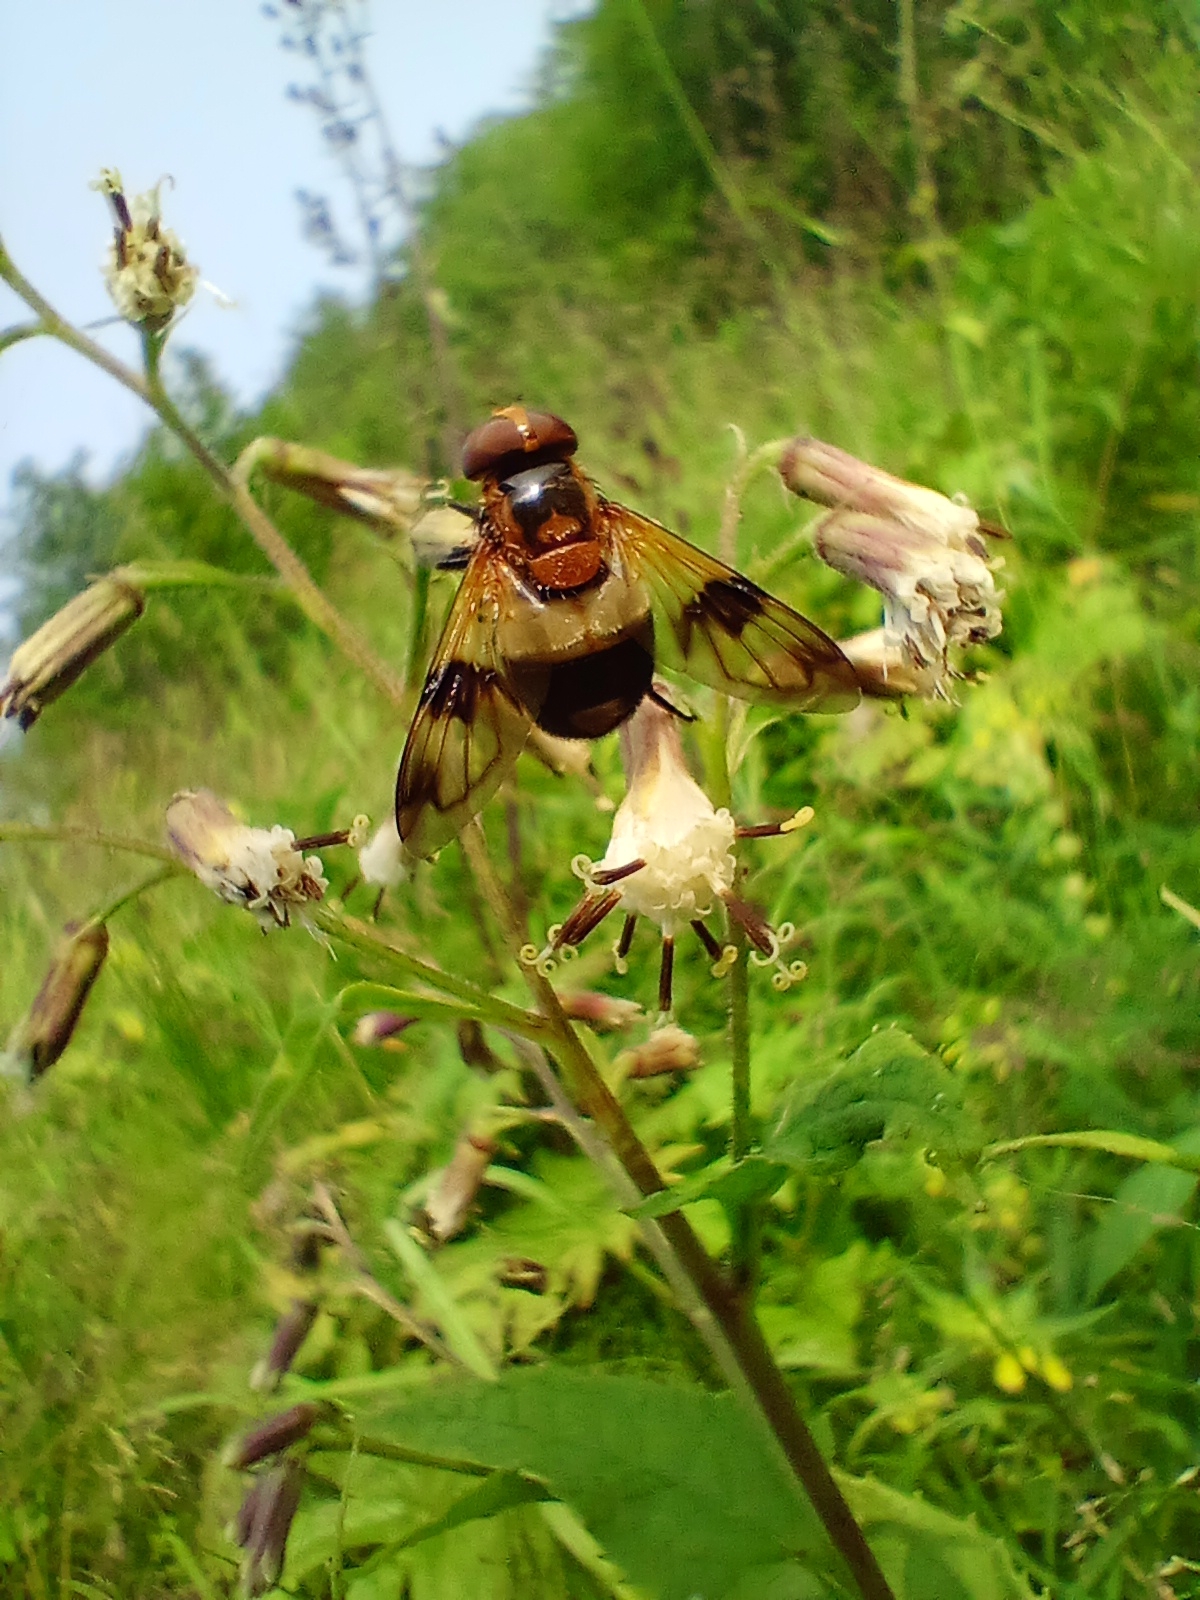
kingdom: Animalia
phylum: Arthropoda
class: Insecta
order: Diptera
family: Syrphidae
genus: Volucella
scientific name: Volucella tabanoides
